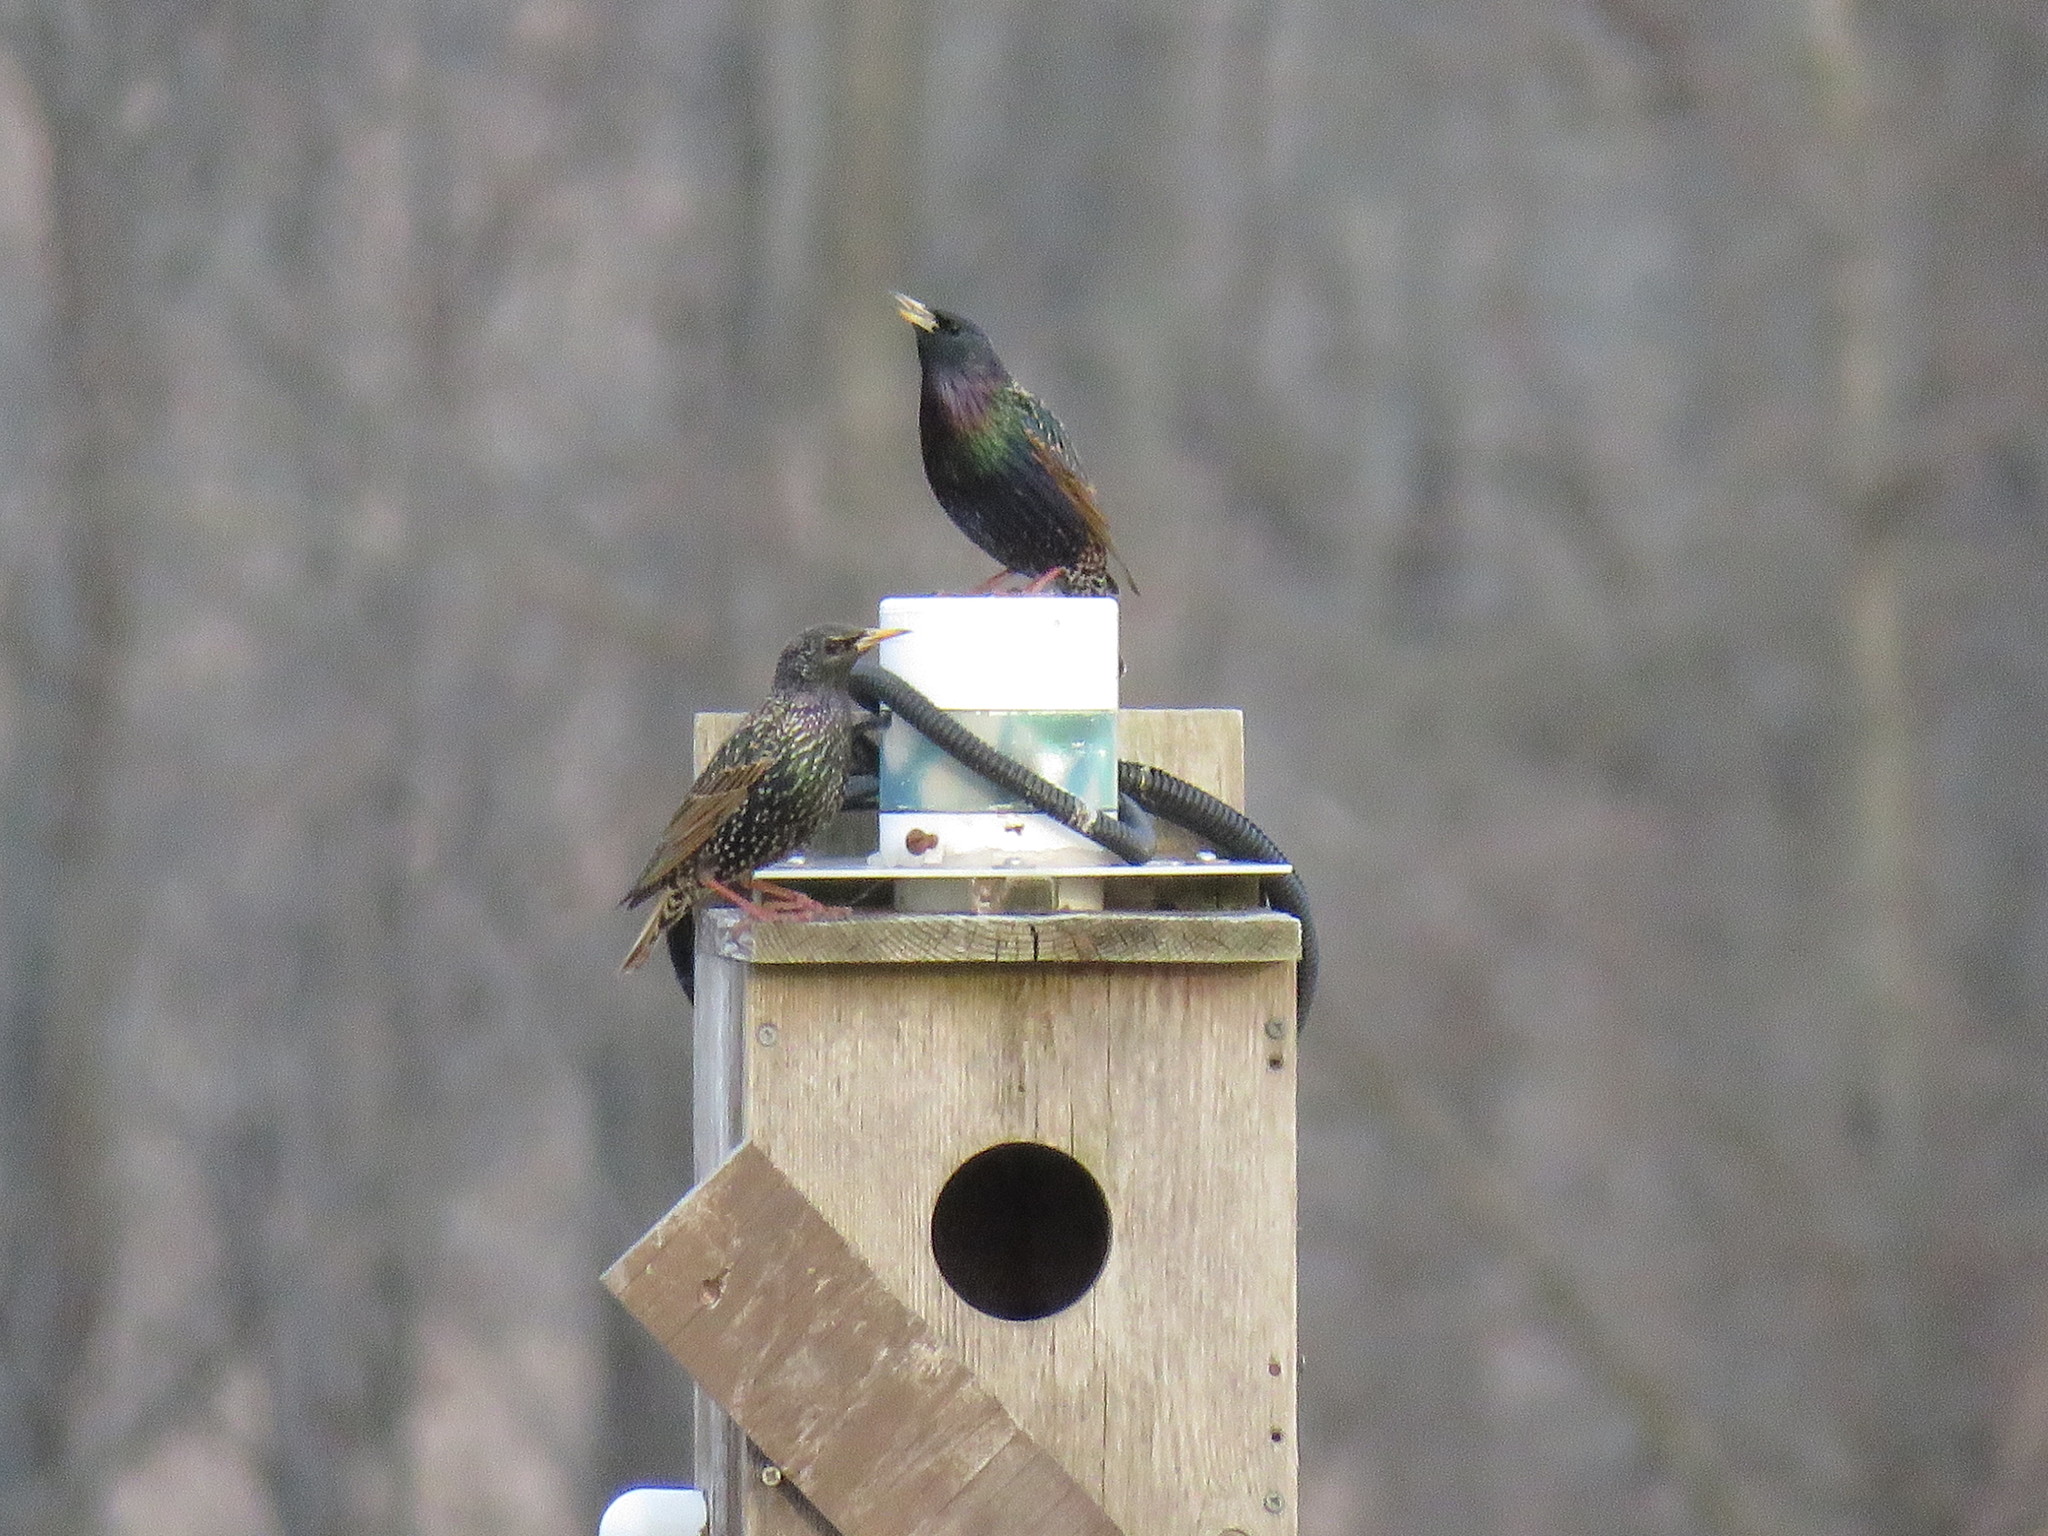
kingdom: Animalia
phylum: Chordata
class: Aves
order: Passeriformes
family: Sturnidae
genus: Sturnus
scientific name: Sturnus vulgaris
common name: Common starling
